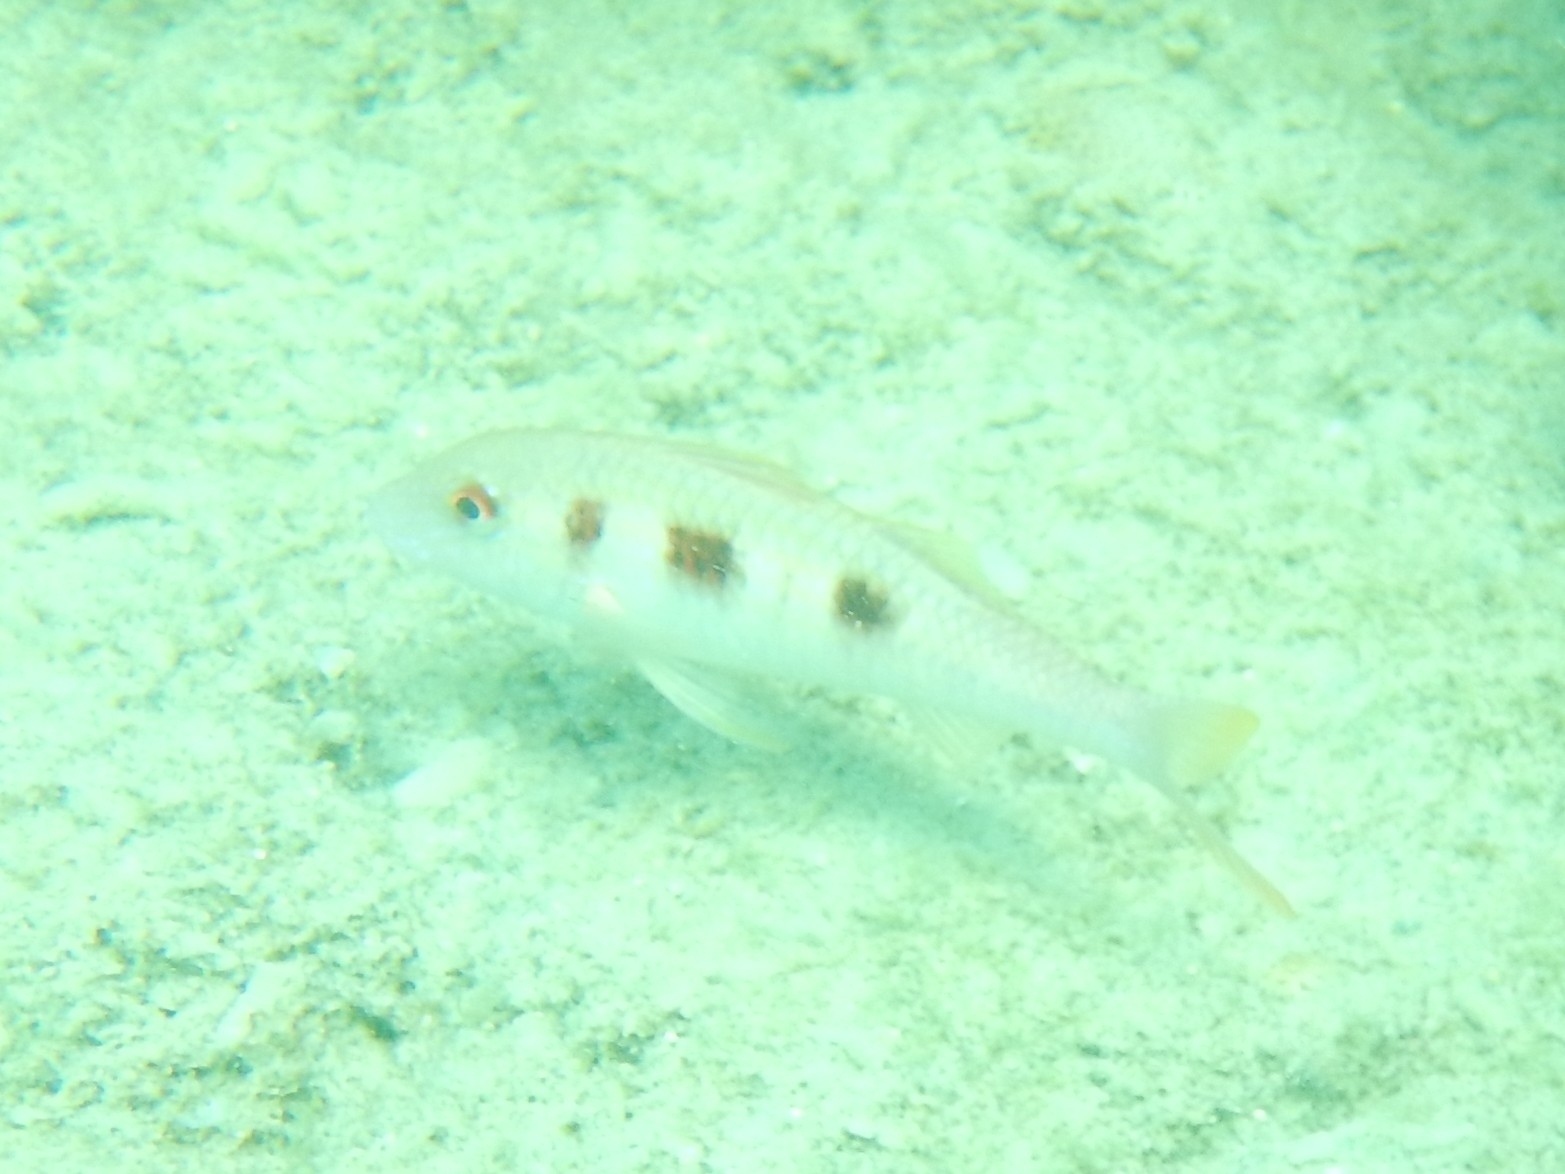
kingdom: Animalia
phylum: Chordata
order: Perciformes
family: Mullidae
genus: Pseudupeneus
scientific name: Pseudupeneus maculatus
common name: Spotted goatfish
